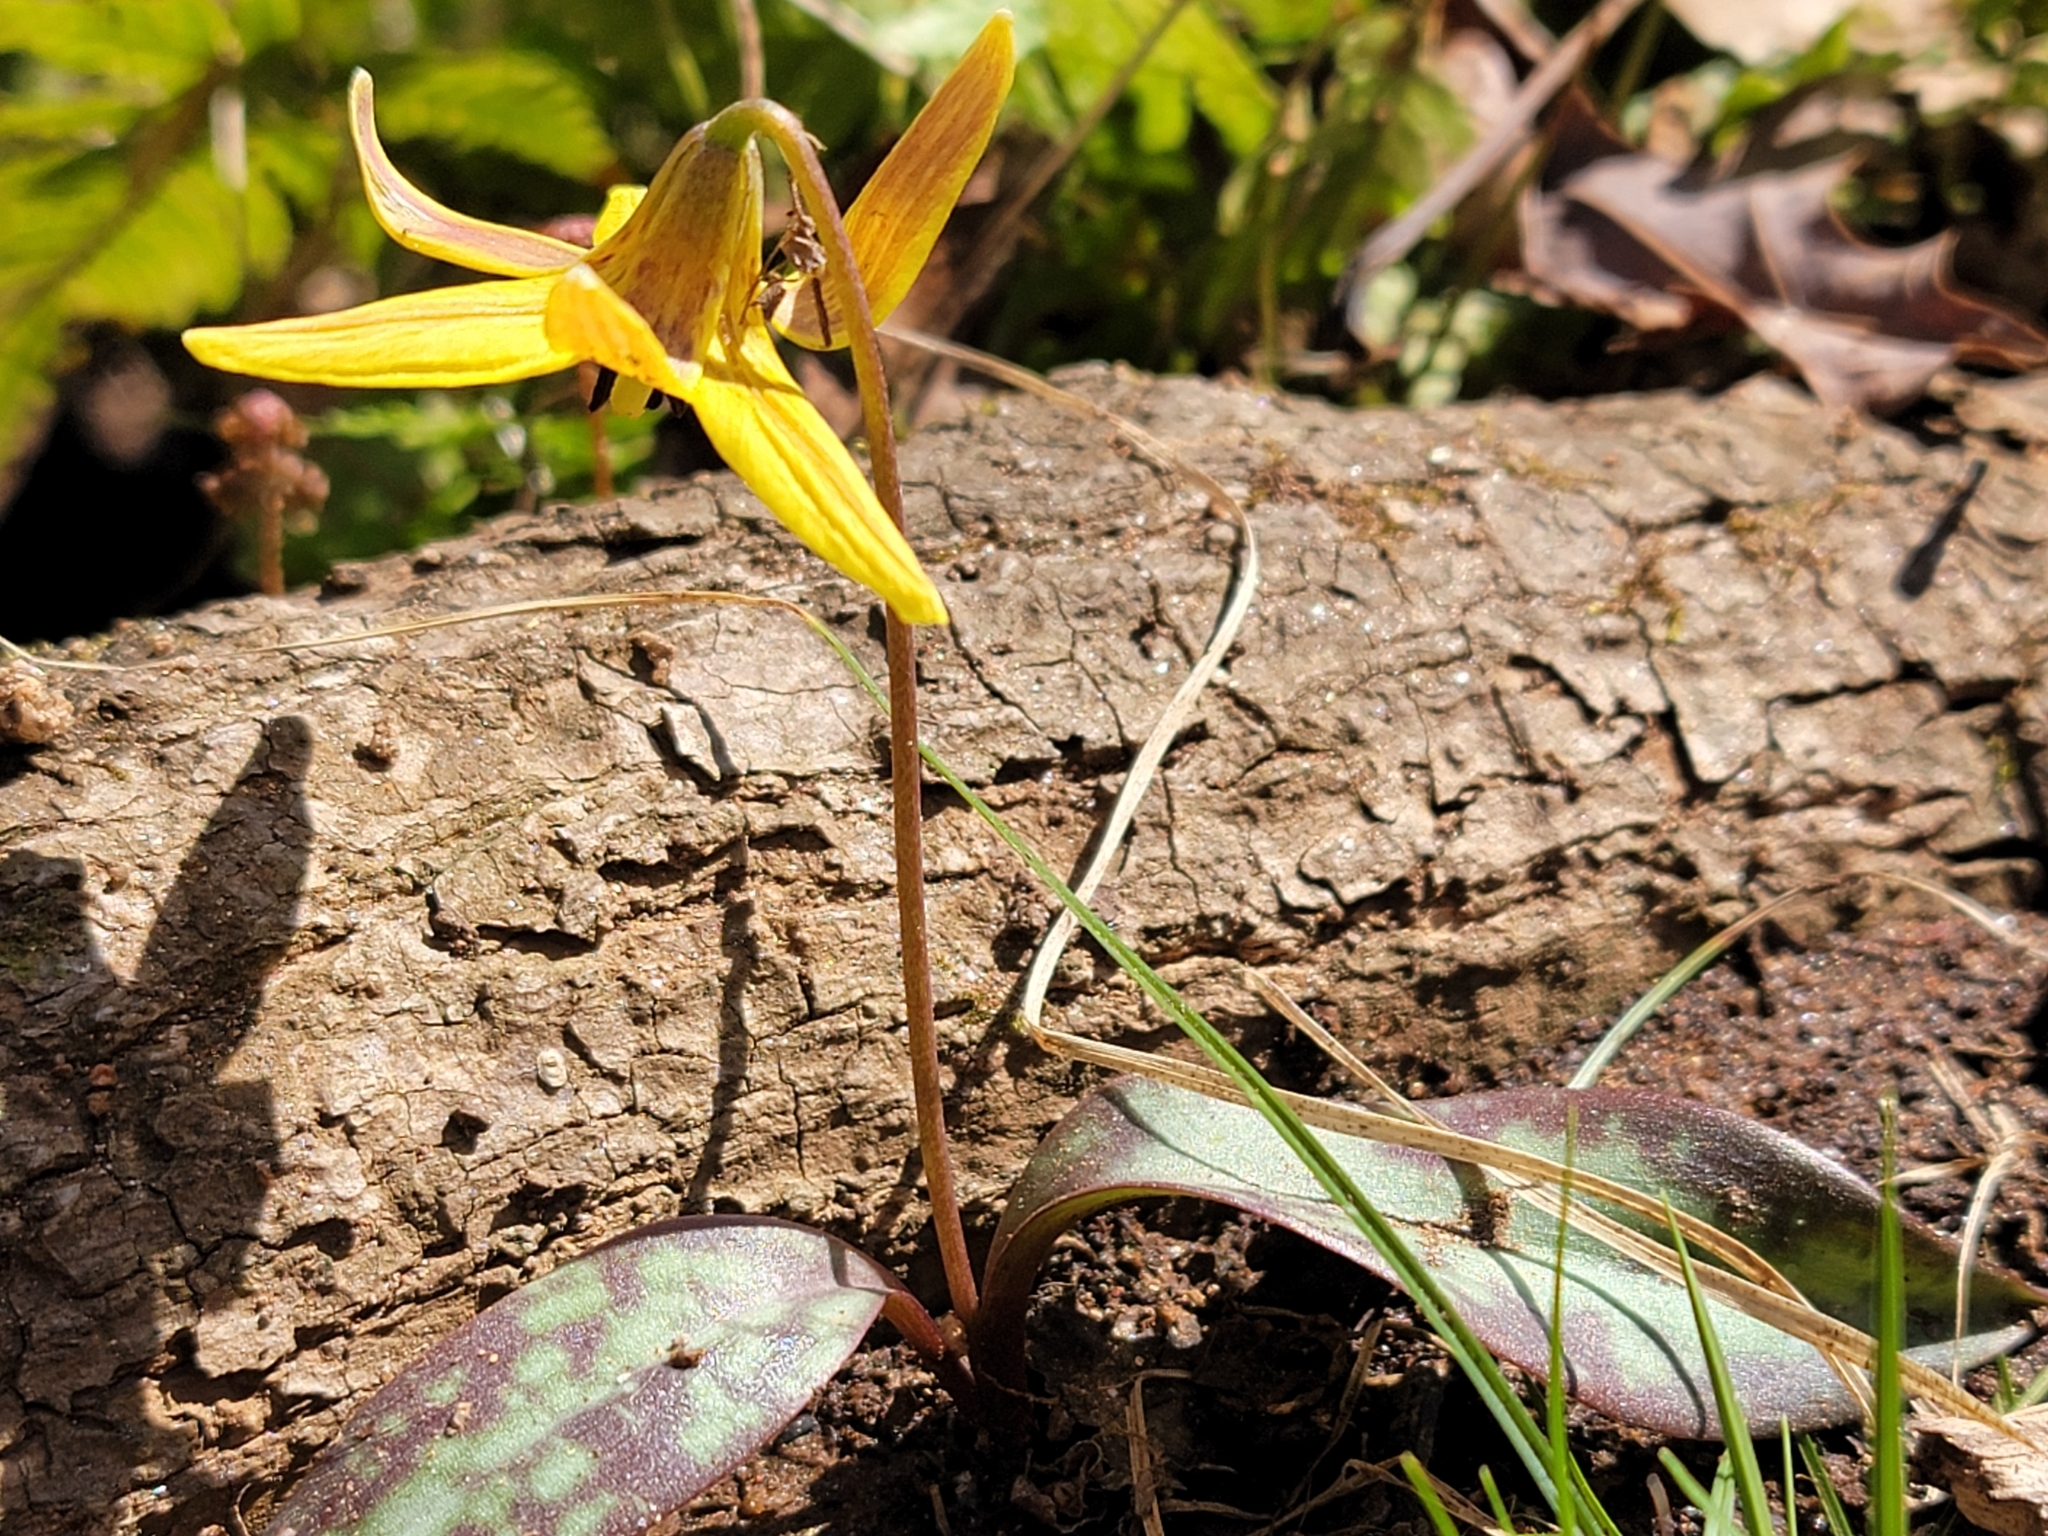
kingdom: Plantae
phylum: Tracheophyta
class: Liliopsida
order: Liliales
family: Liliaceae
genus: Erythronium
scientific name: Erythronium umbilicatum
